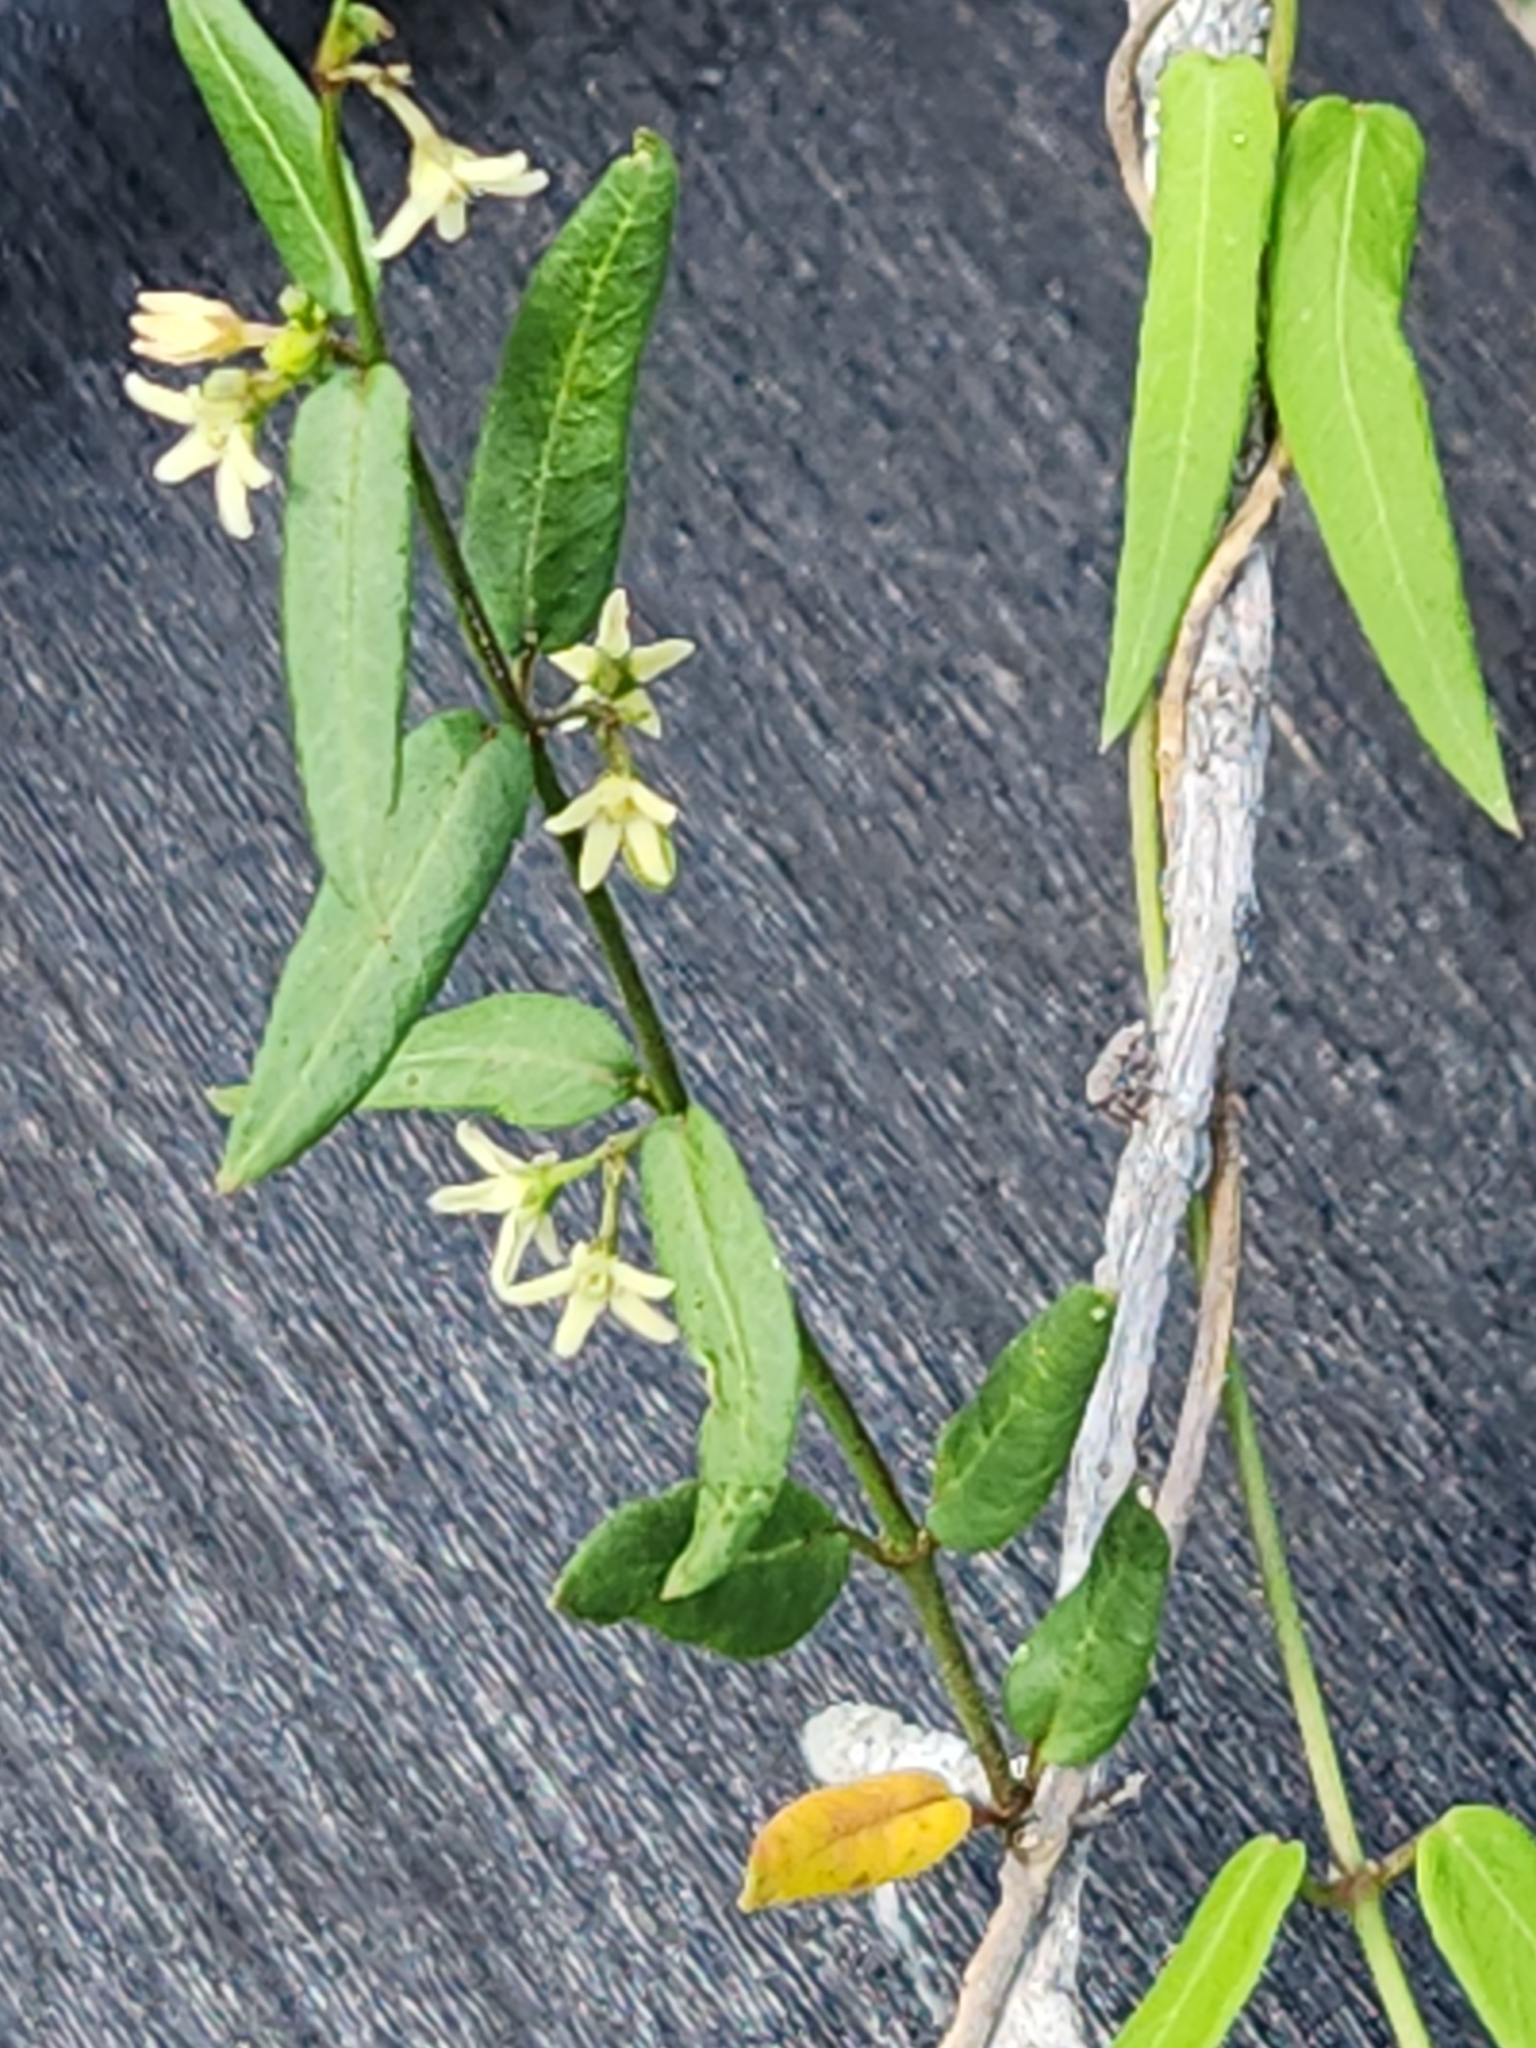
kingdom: Plantae
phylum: Tracheophyta
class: Magnoliopsida
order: Gentianales
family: Apocynaceae
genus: Metastelma
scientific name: Metastelma palmeri
